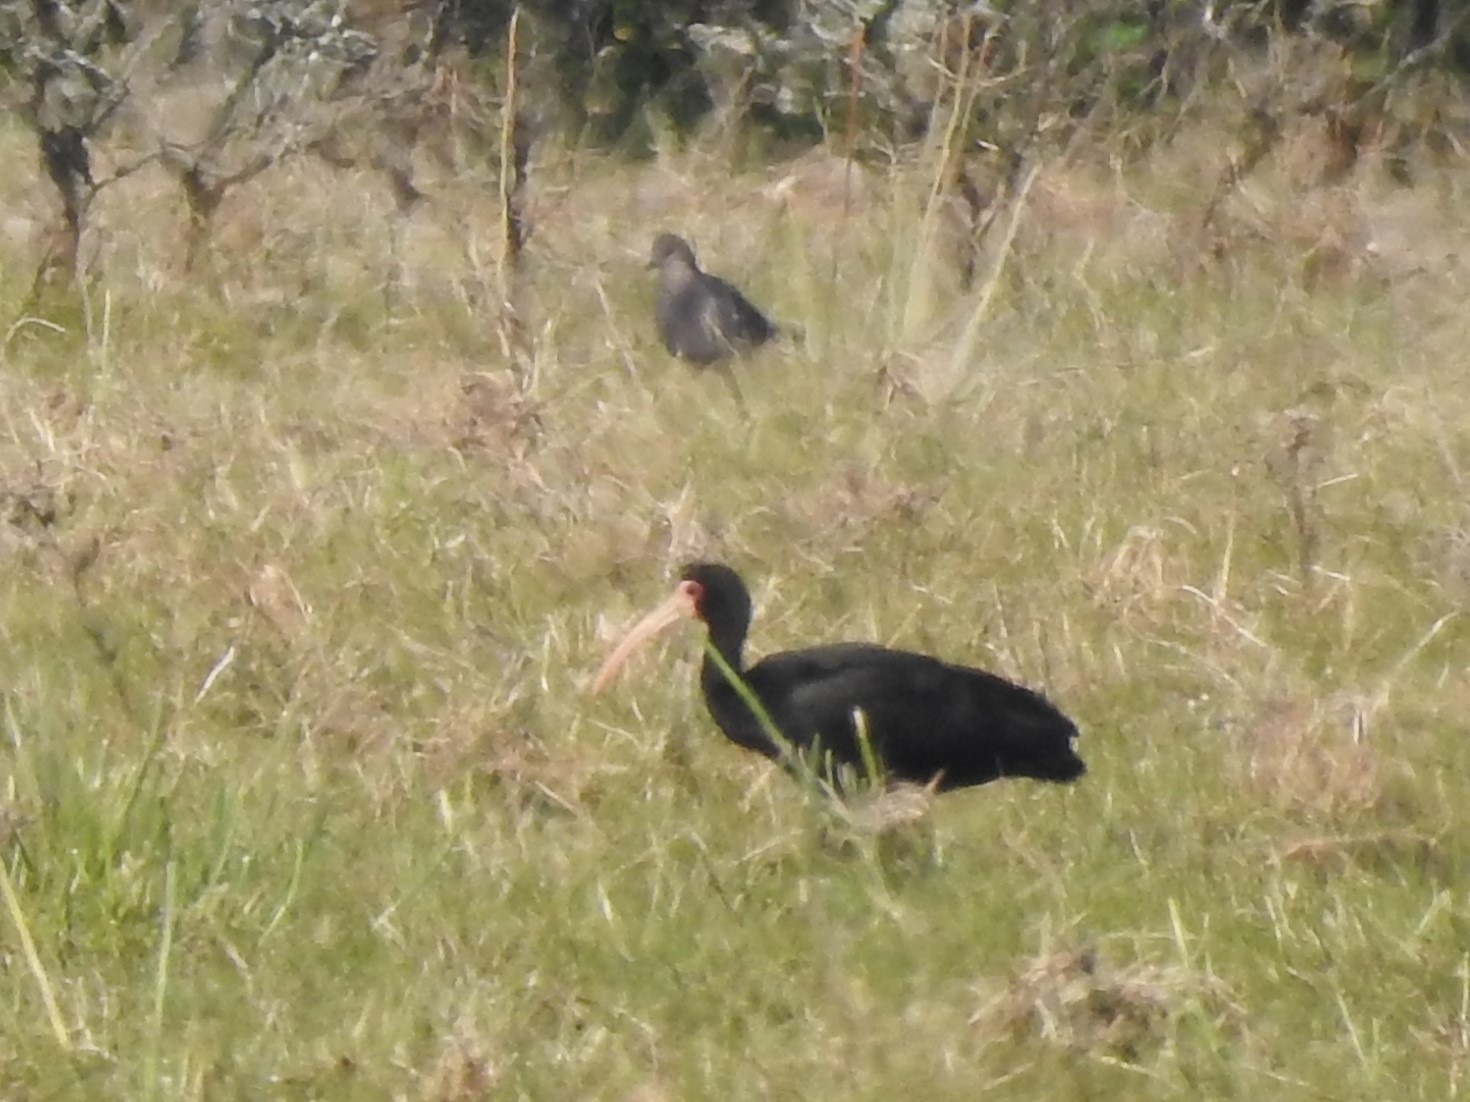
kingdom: Animalia
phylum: Chordata
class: Aves
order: Pelecaniformes
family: Threskiornithidae
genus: Phimosus
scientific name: Phimosus infuscatus
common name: Bare-faced ibis
